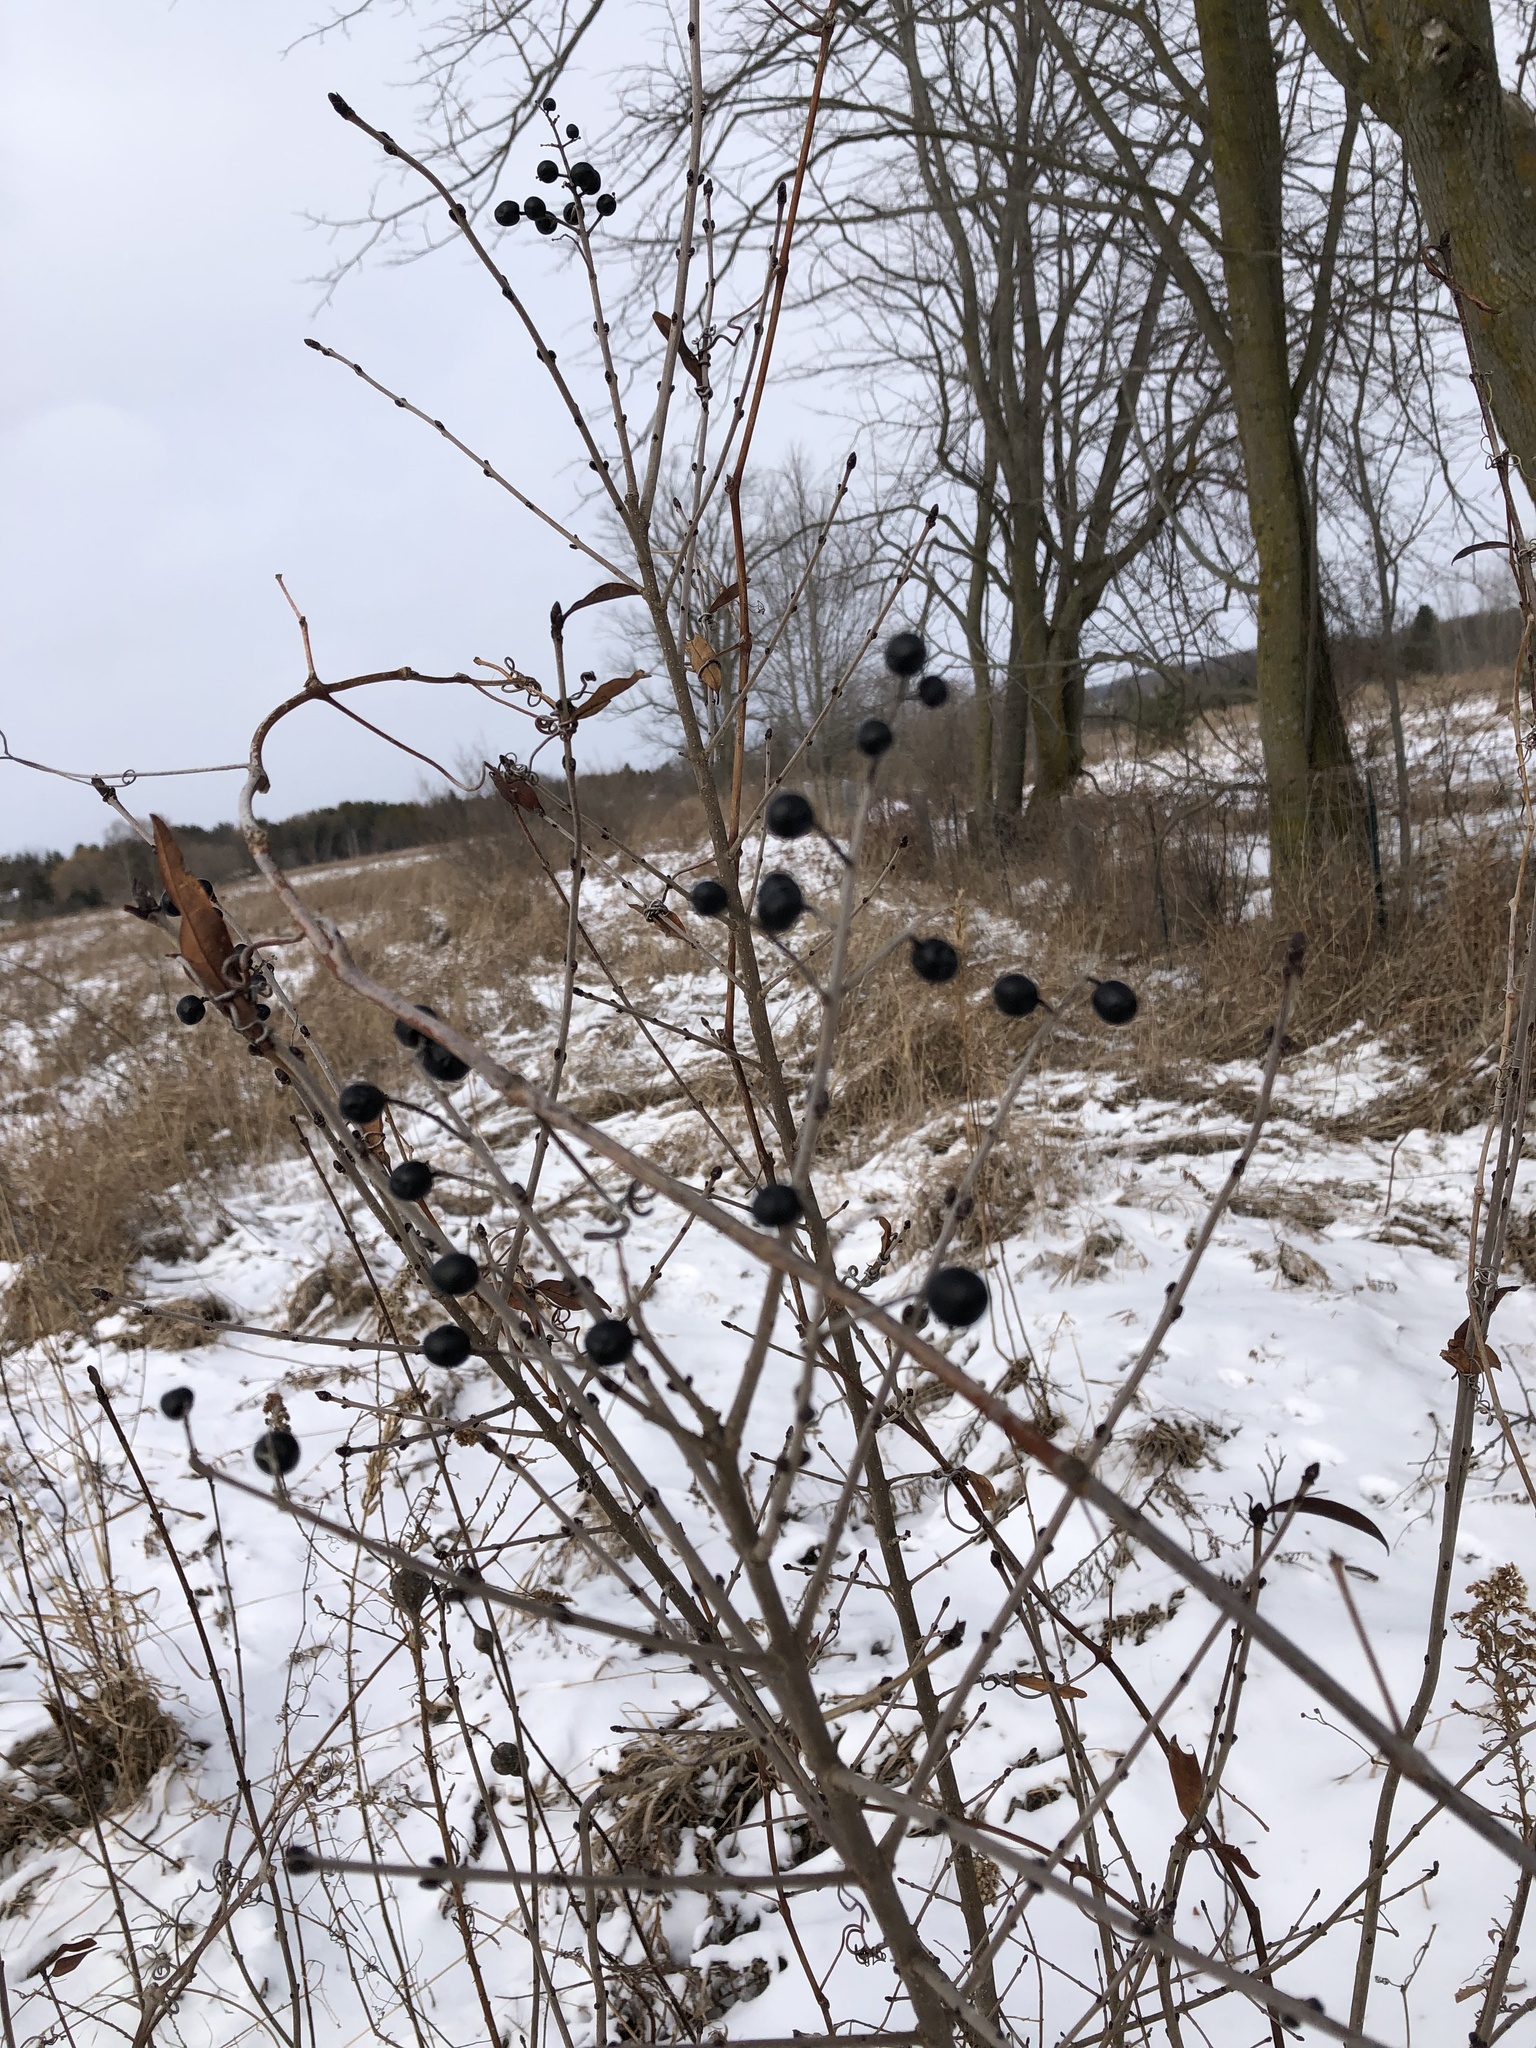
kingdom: Plantae
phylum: Tracheophyta
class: Magnoliopsida
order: Rosales
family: Rhamnaceae
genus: Rhamnus
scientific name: Rhamnus cathartica
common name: Common buckthorn
